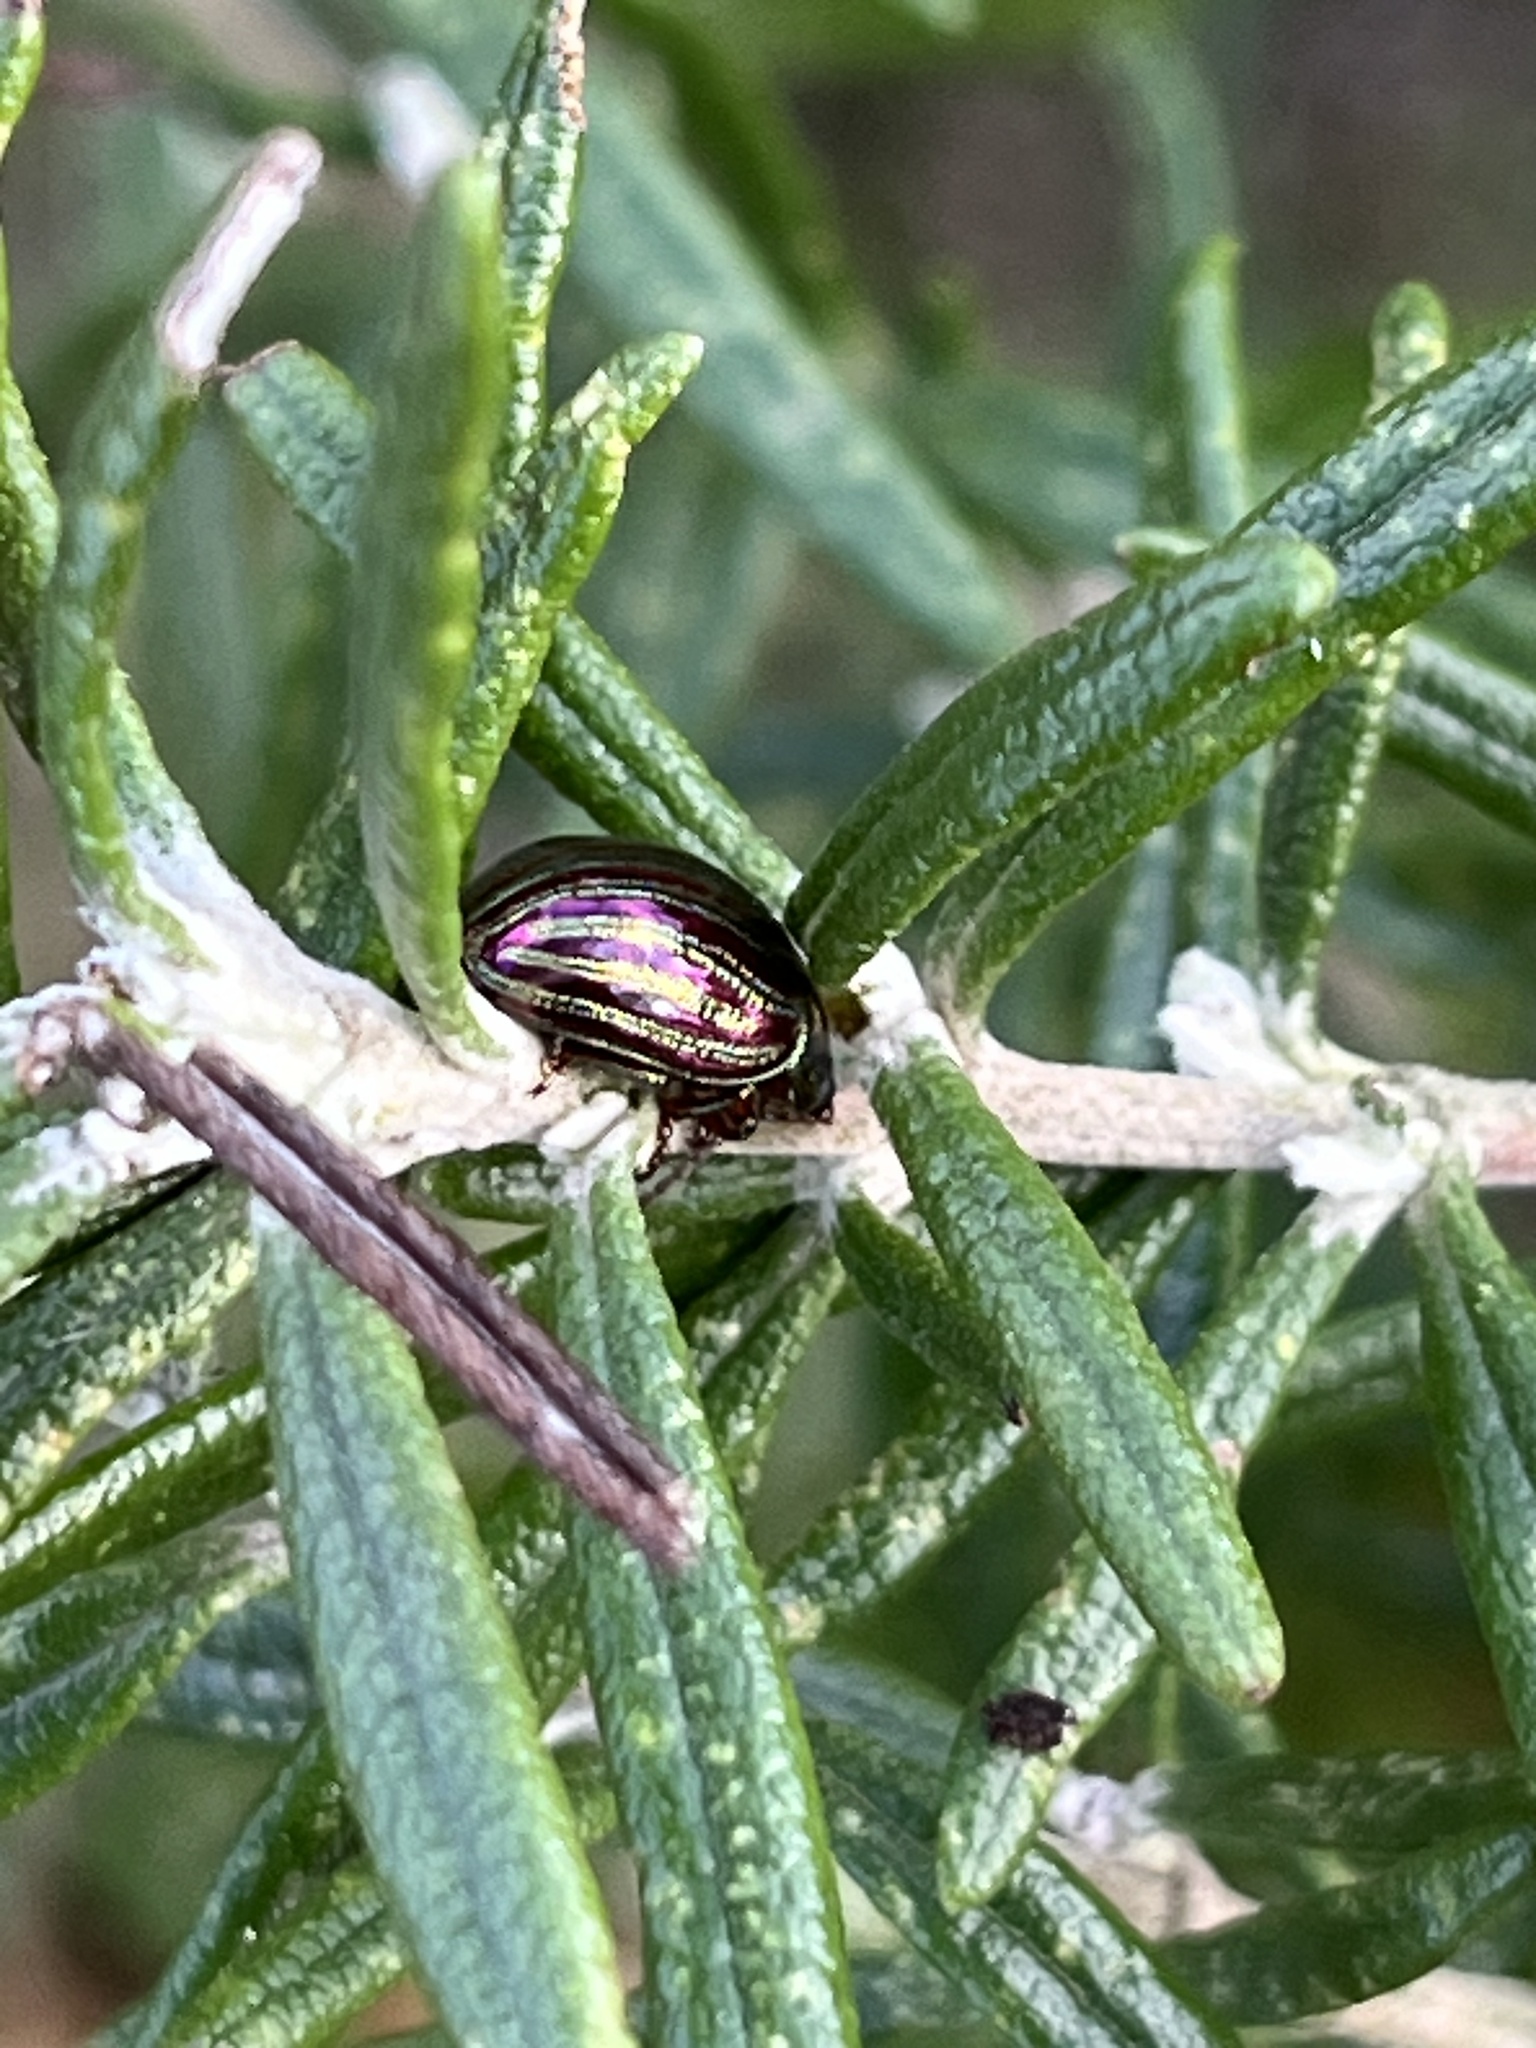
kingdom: Animalia
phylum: Arthropoda
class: Insecta
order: Coleoptera
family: Chrysomelidae
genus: Chrysolina
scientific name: Chrysolina americana
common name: Rosemary beetle
